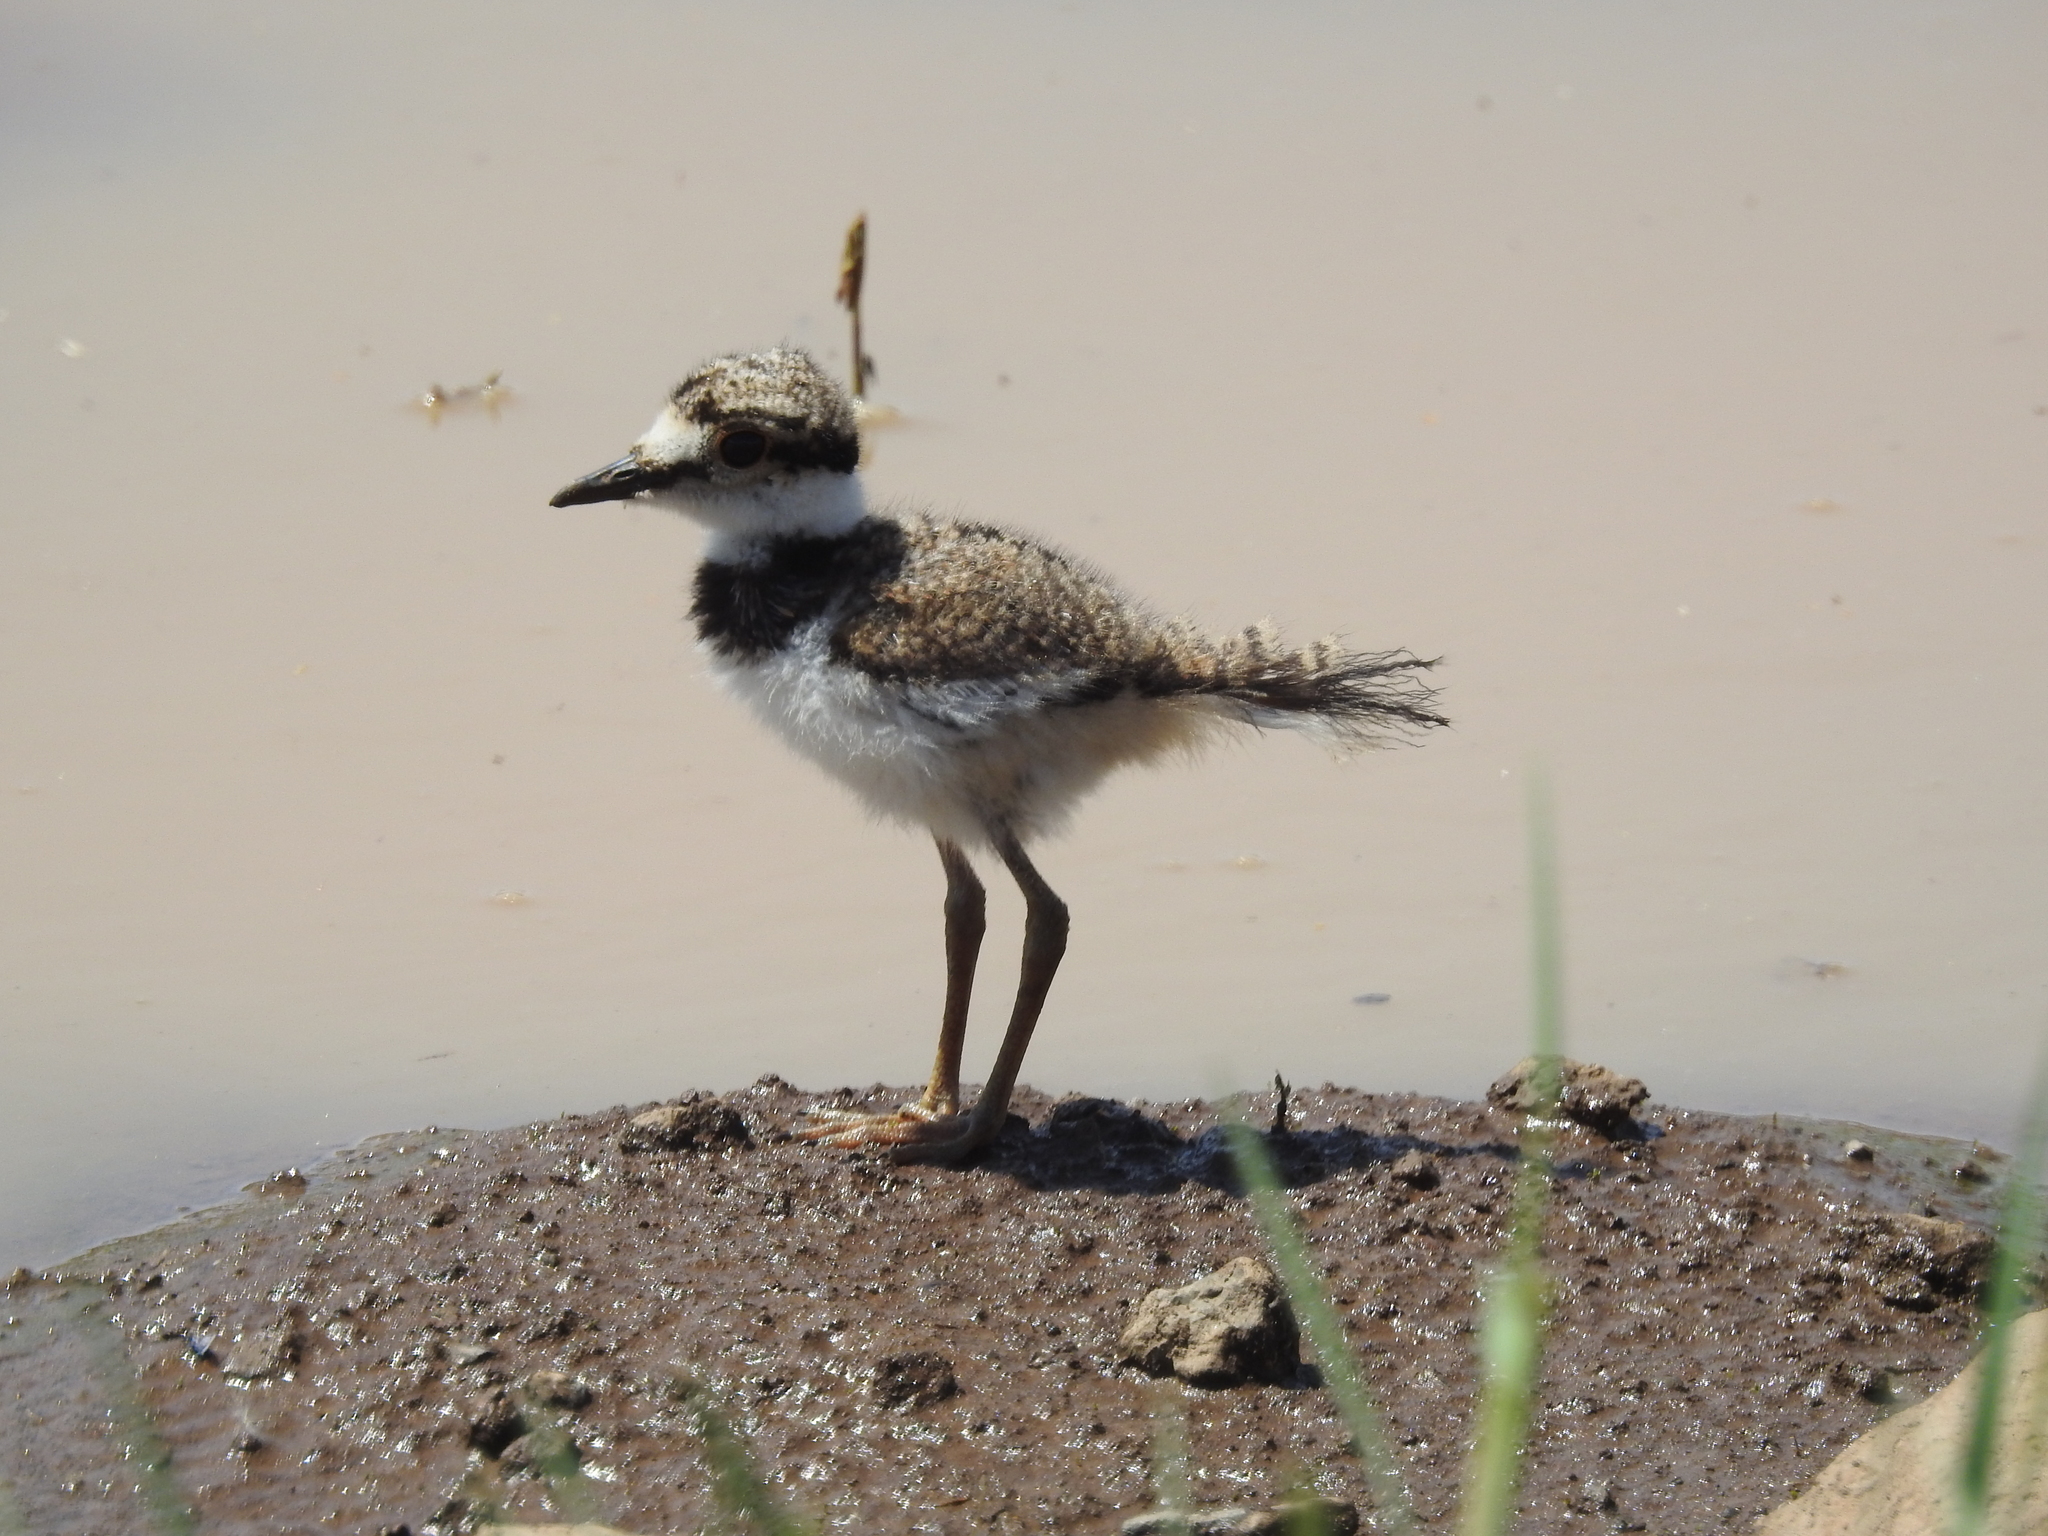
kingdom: Animalia
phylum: Chordata
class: Aves
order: Charadriiformes
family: Charadriidae
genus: Charadrius
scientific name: Charadrius vociferus
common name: Killdeer
